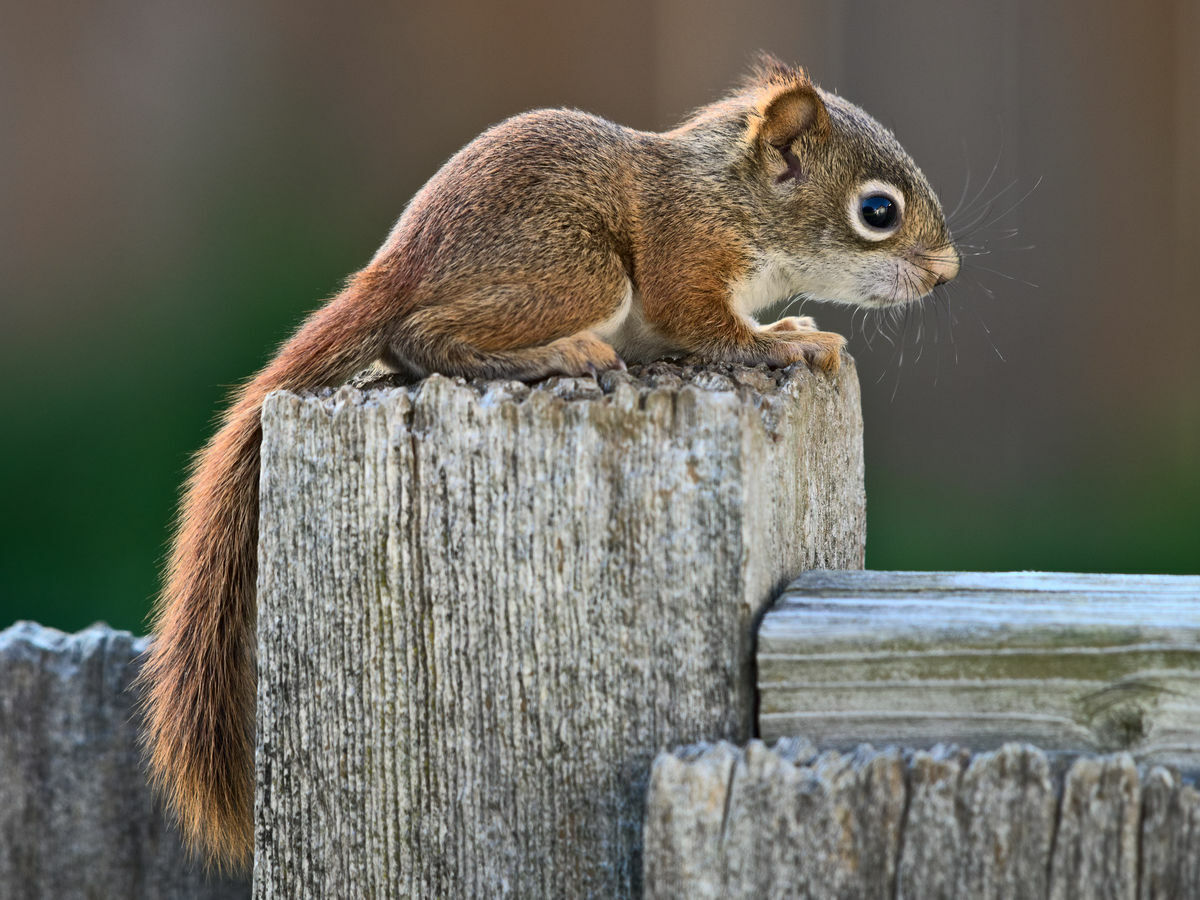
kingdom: Animalia
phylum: Chordata
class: Mammalia
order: Rodentia
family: Sciuridae
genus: Tamiasciurus
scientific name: Tamiasciurus hudsonicus
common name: Red squirrel
